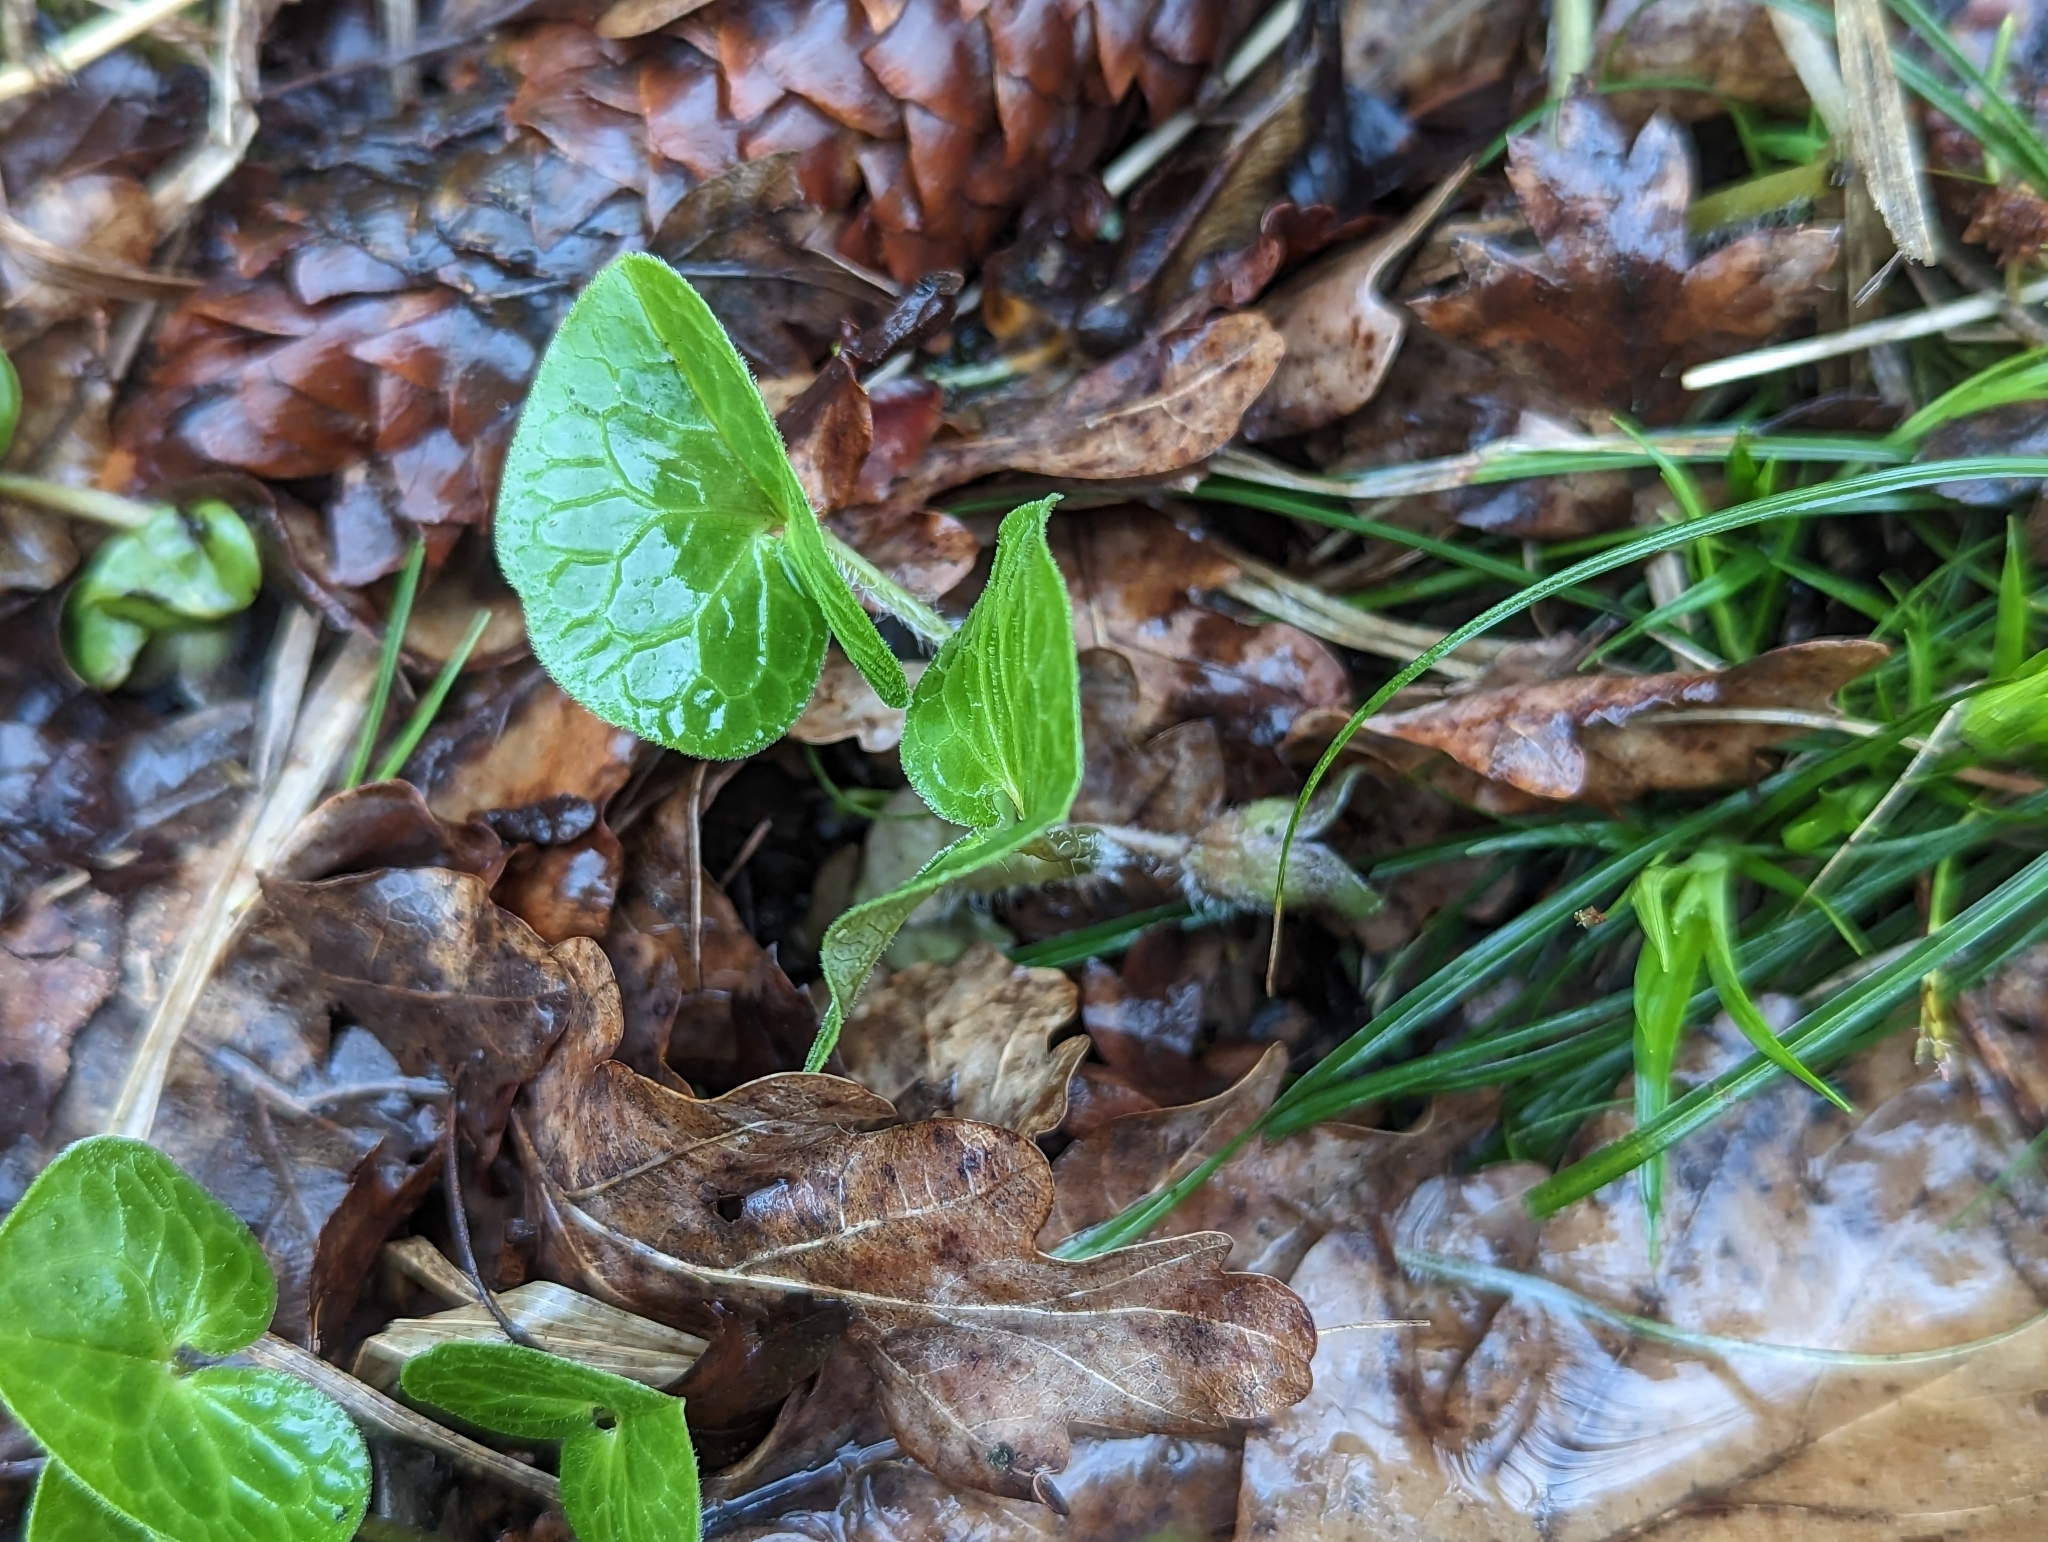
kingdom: Plantae
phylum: Tracheophyta
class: Magnoliopsida
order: Piperales
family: Aristolochiaceae
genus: Asarum
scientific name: Asarum europaeum
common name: Asarabacca
